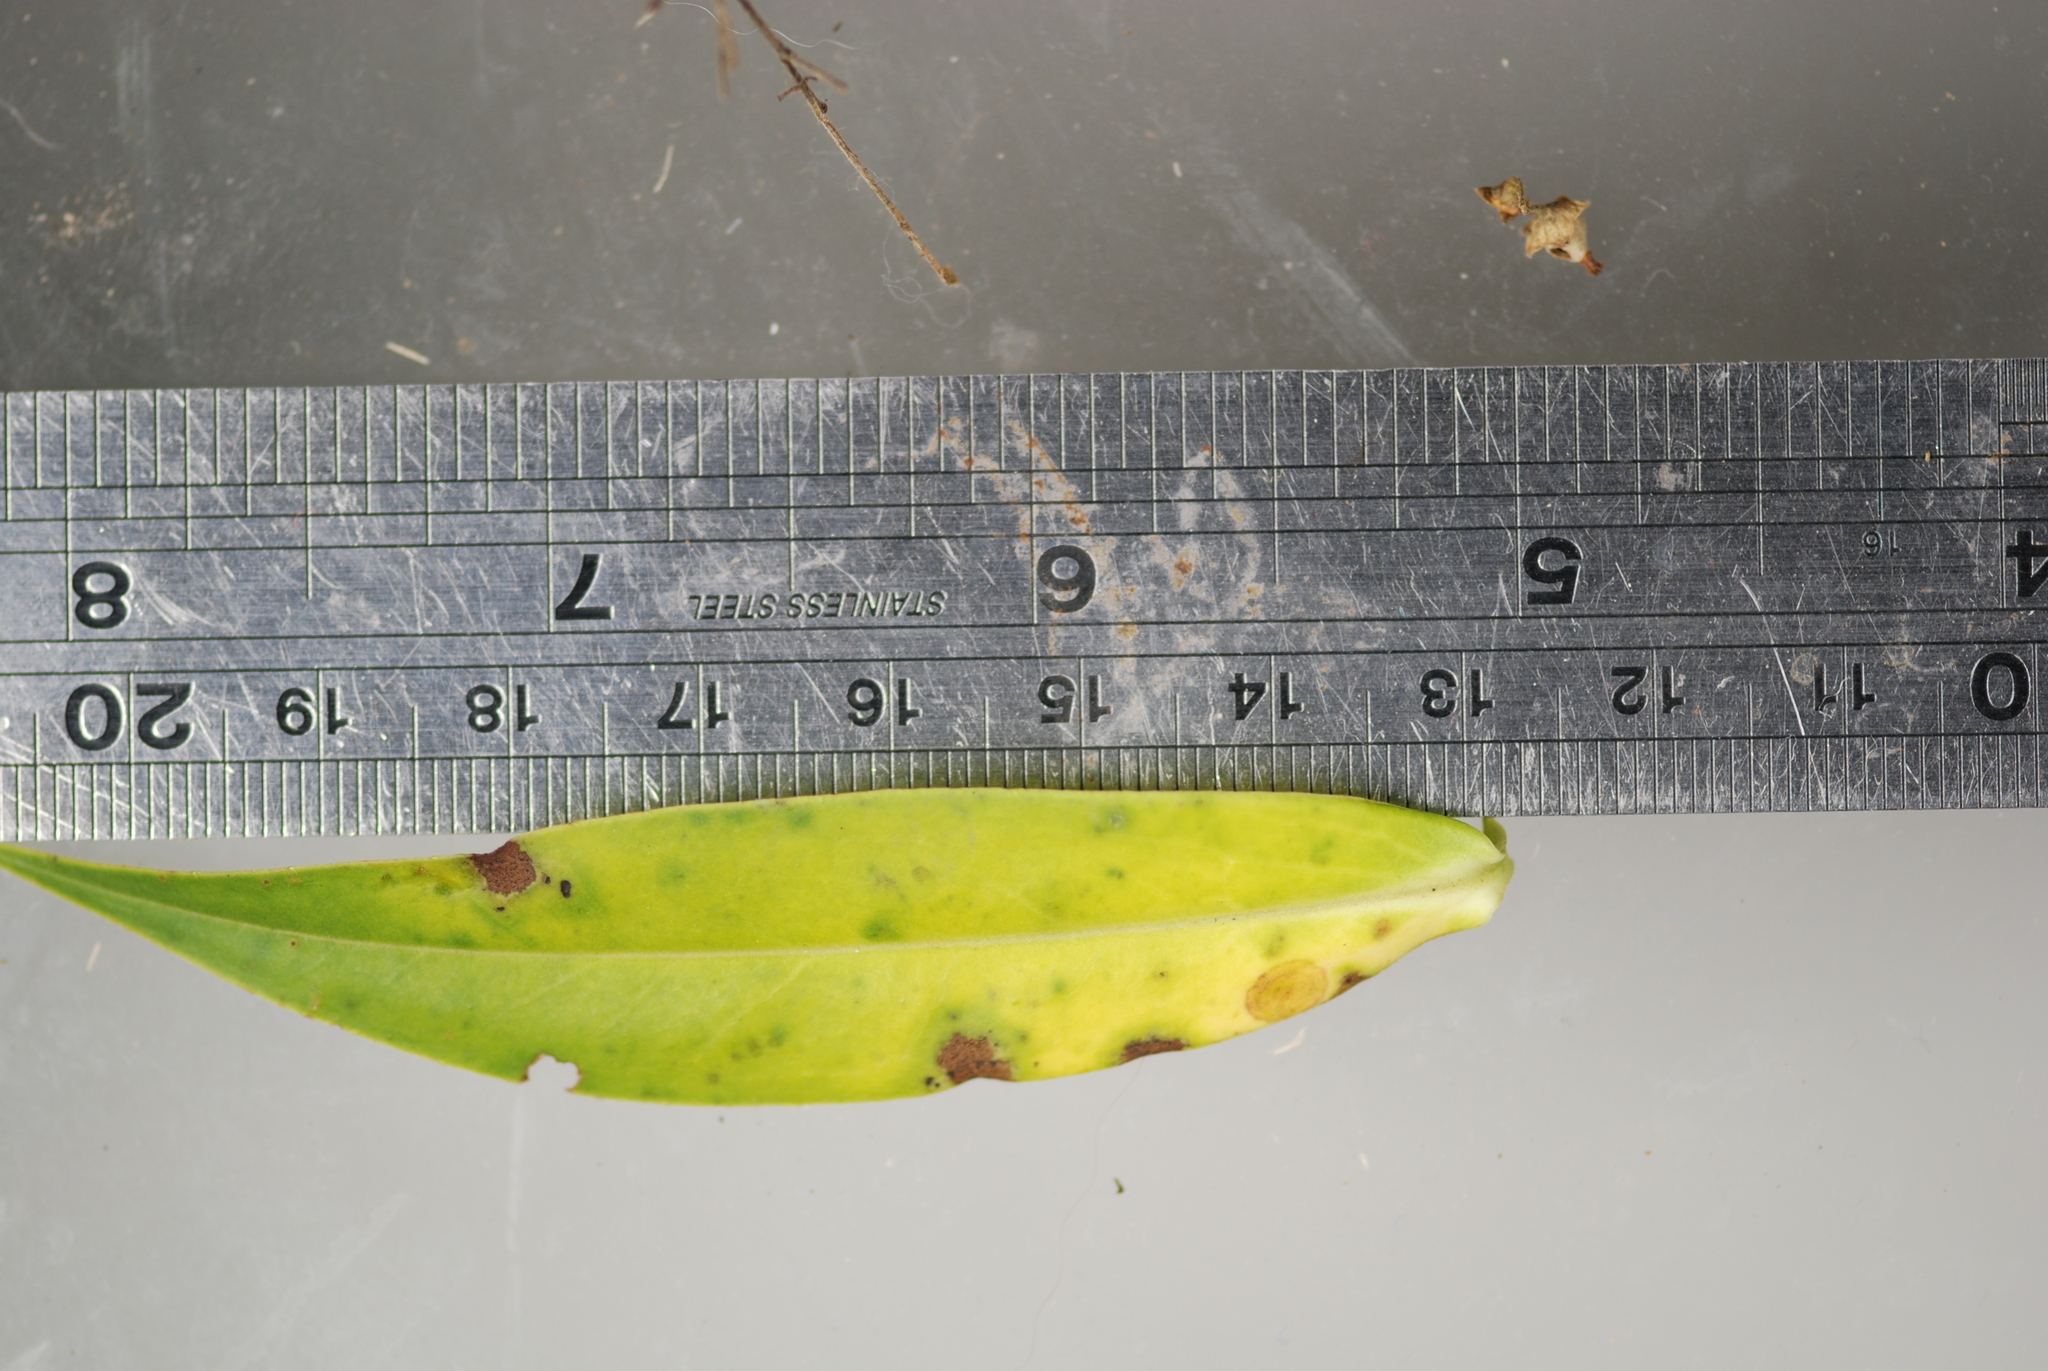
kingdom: Fungi
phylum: Ascomycota
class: Dothideomycetes
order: Mycosphaerellales
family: Mycosphaerellaceae
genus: Septoria
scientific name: Septoria exotica
